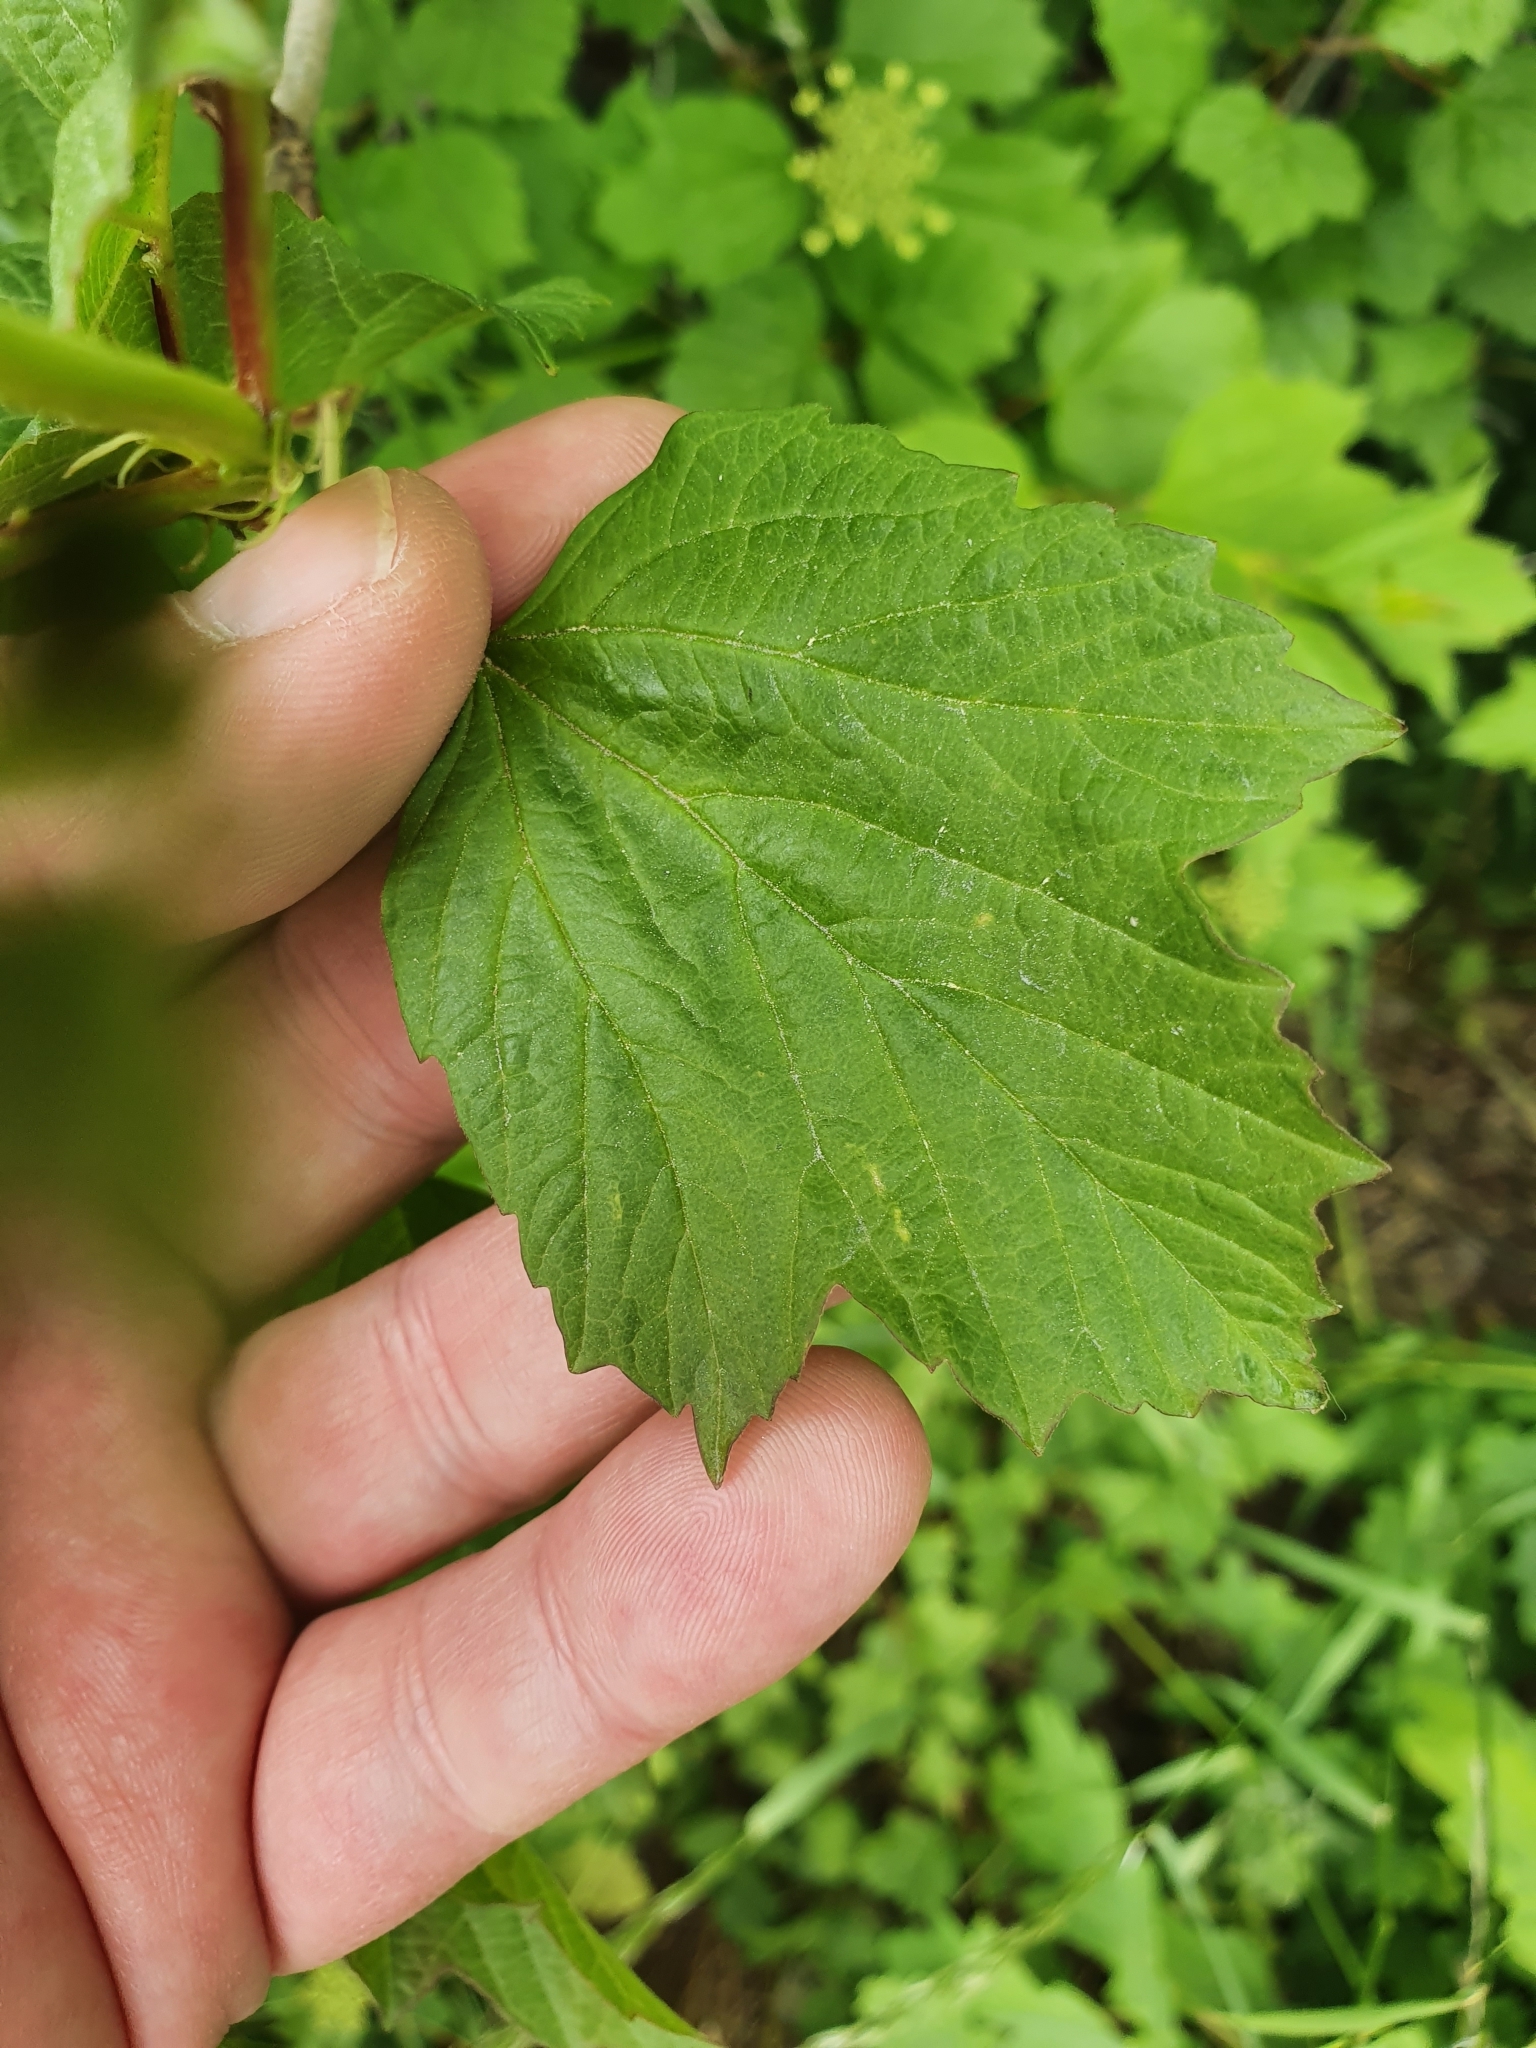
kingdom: Plantae
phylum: Tracheophyta
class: Magnoliopsida
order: Dipsacales
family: Viburnaceae
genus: Viburnum
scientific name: Viburnum opulus
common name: Guelder-rose
